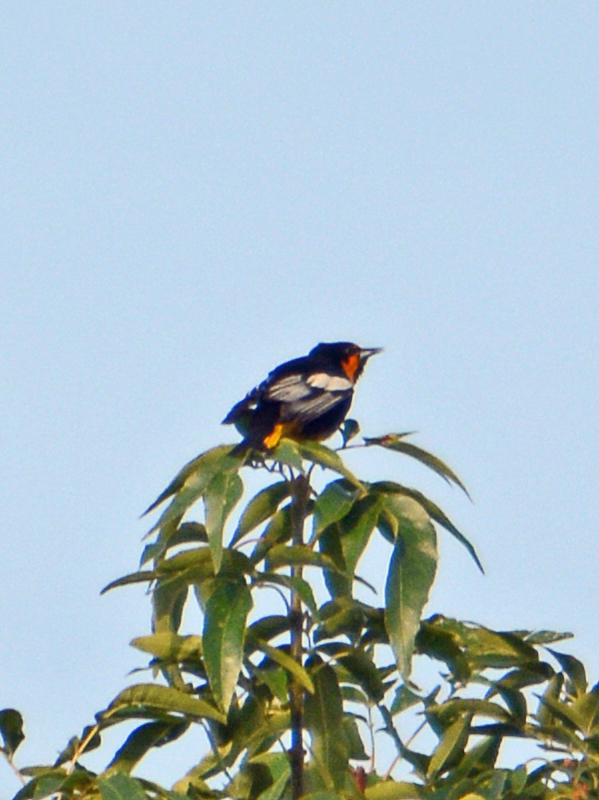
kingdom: Animalia
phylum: Chordata
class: Aves
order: Passeriformes
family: Icteridae
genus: Icterus
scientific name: Icterus abeillei
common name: Black-backed oriole
